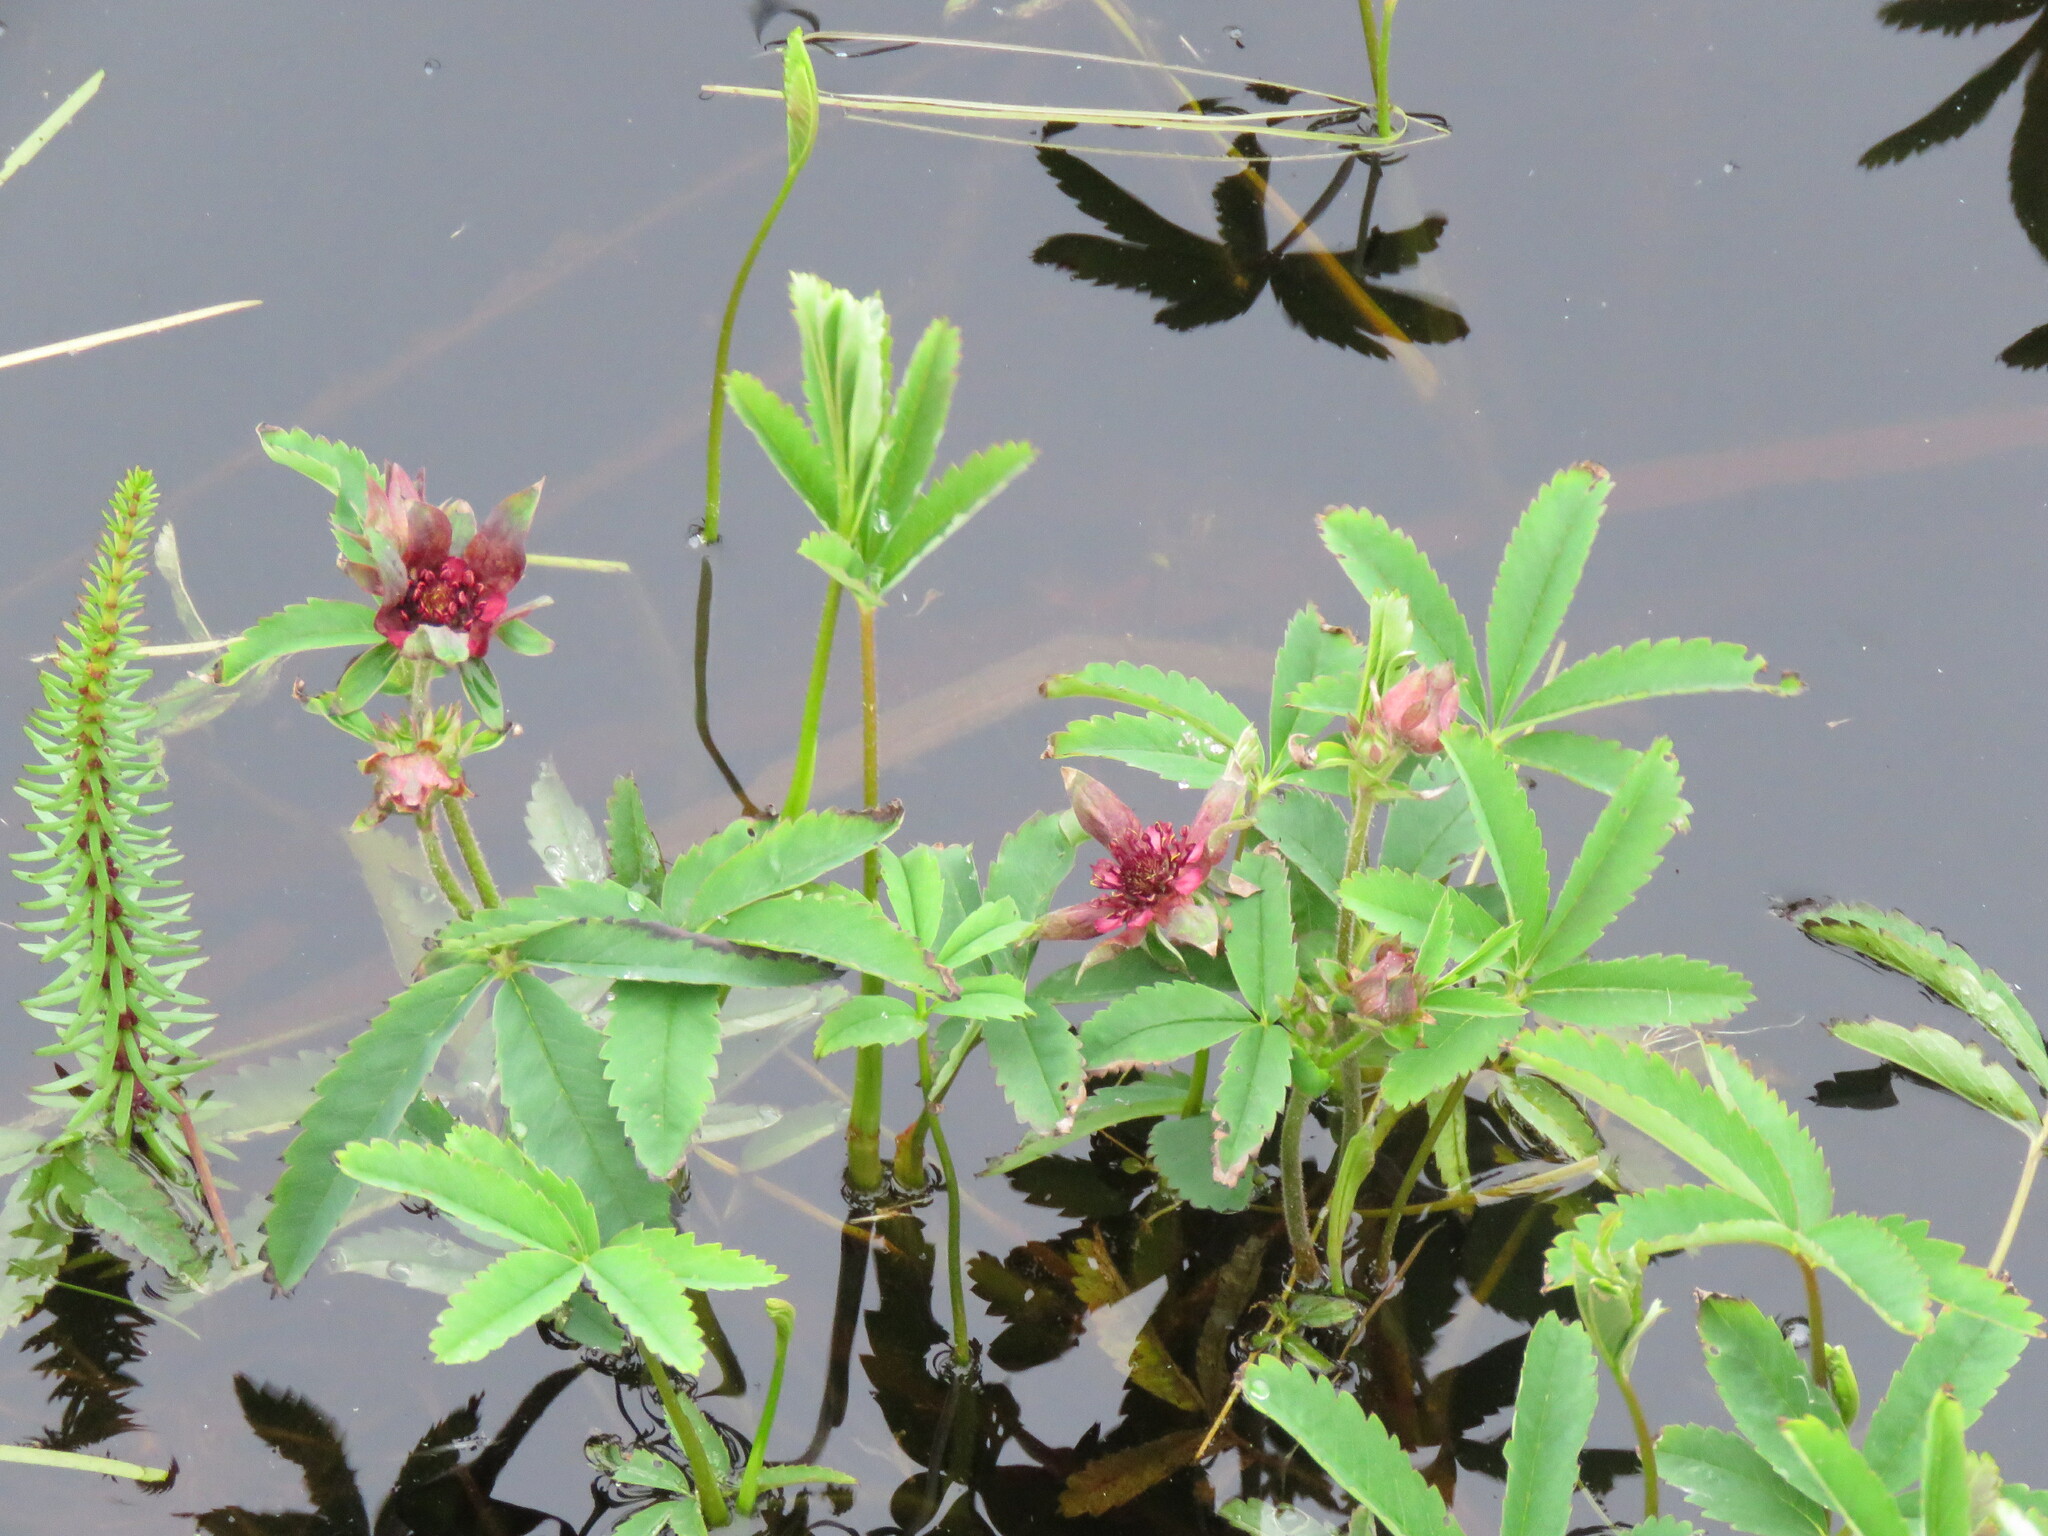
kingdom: Plantae
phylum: Tracheophyta
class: Magnoliopsida
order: Rosales
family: Rosaceae
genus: Comarum
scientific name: Comarum palustre
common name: Marsh cinquefoil
